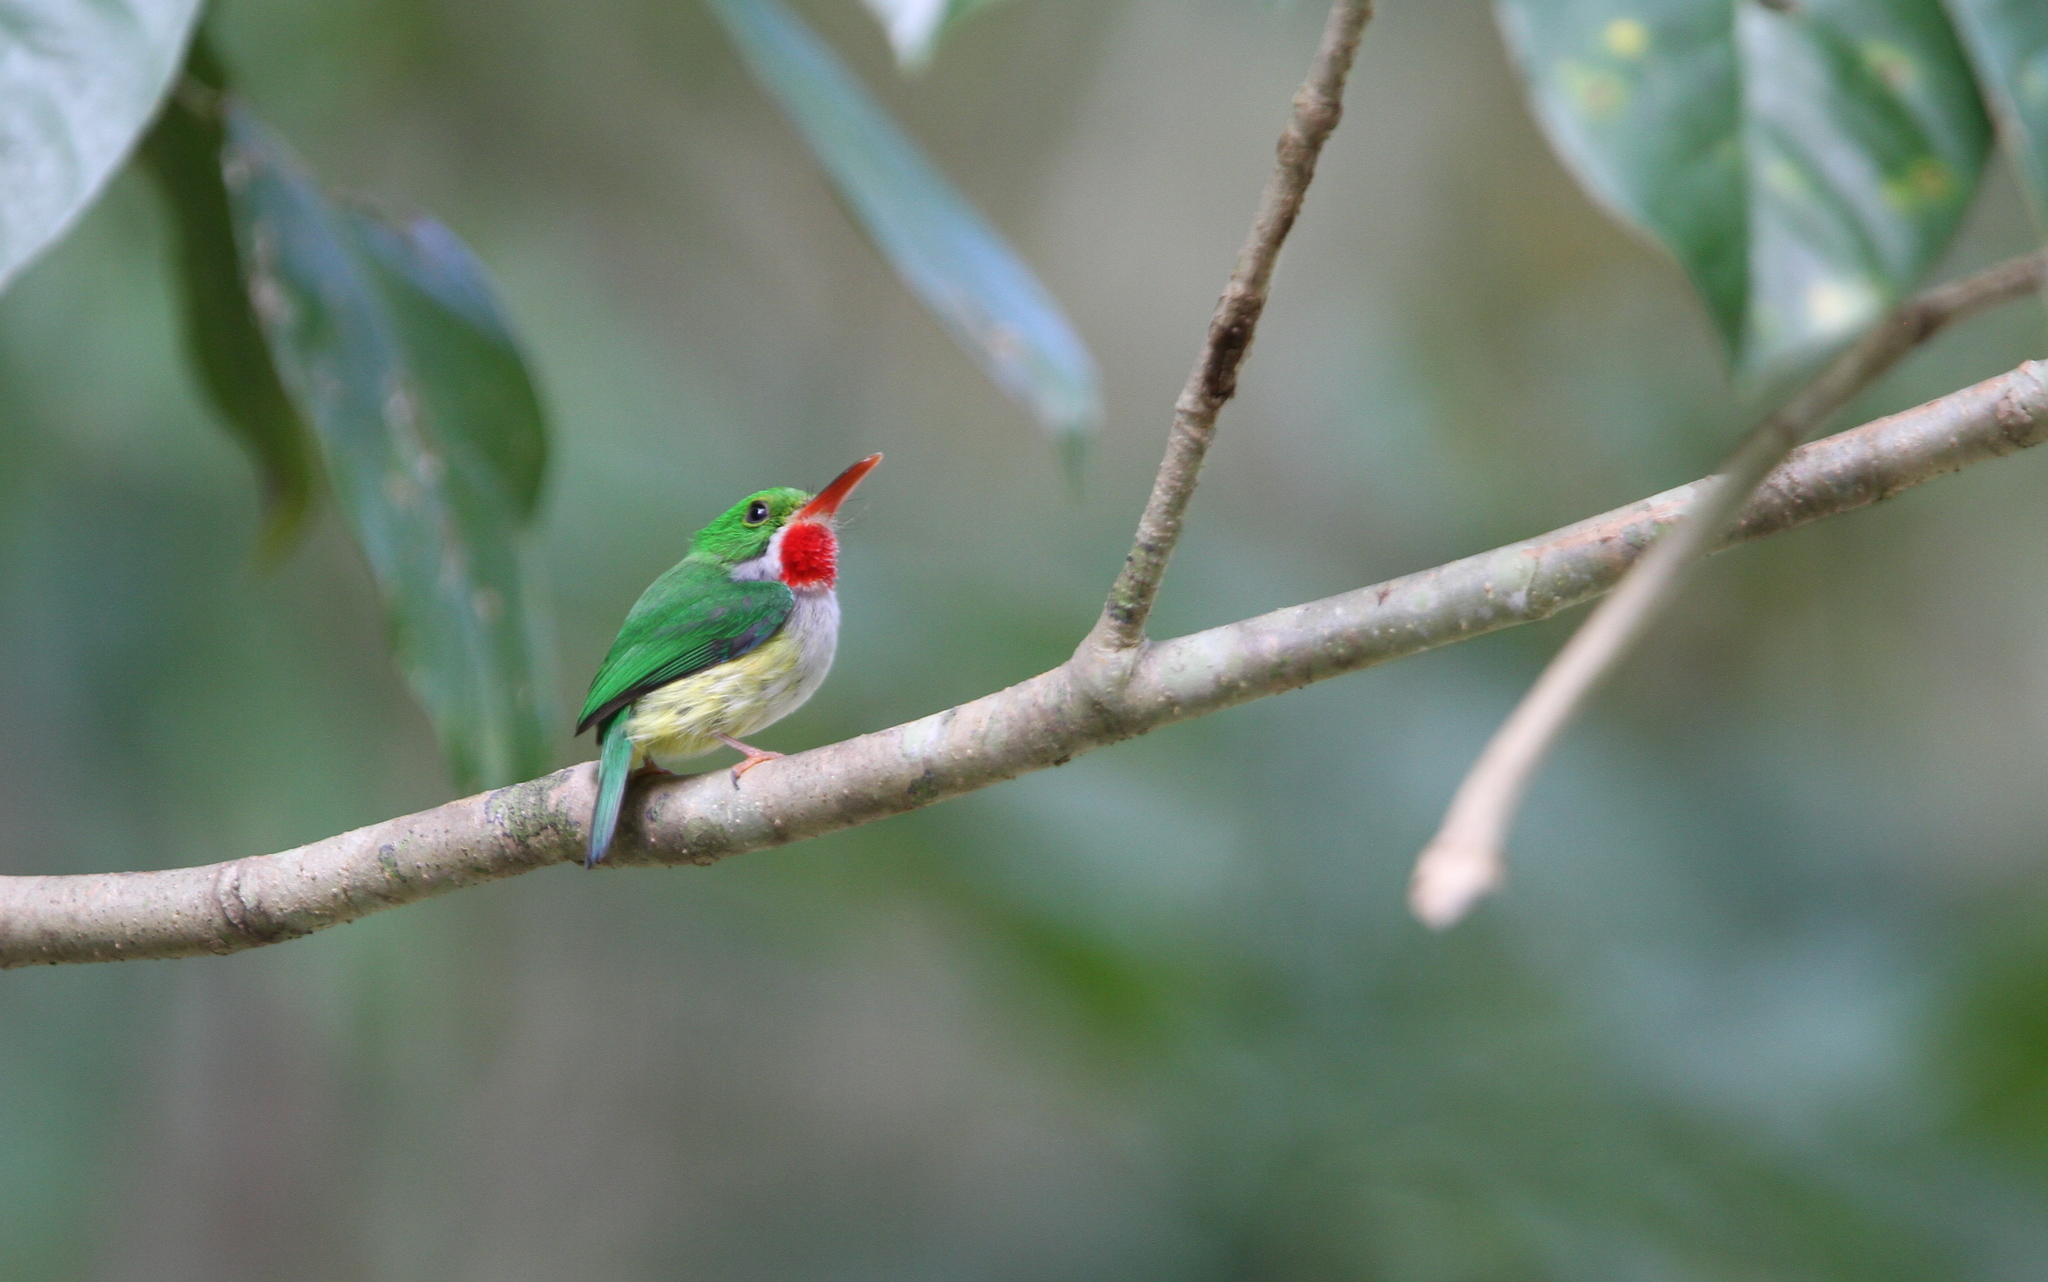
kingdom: Animalia
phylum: Chordata
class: Aves
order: Coraciiformes
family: Todidae
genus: Todus
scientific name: Todus mexicanus
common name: Puerto rican tody
